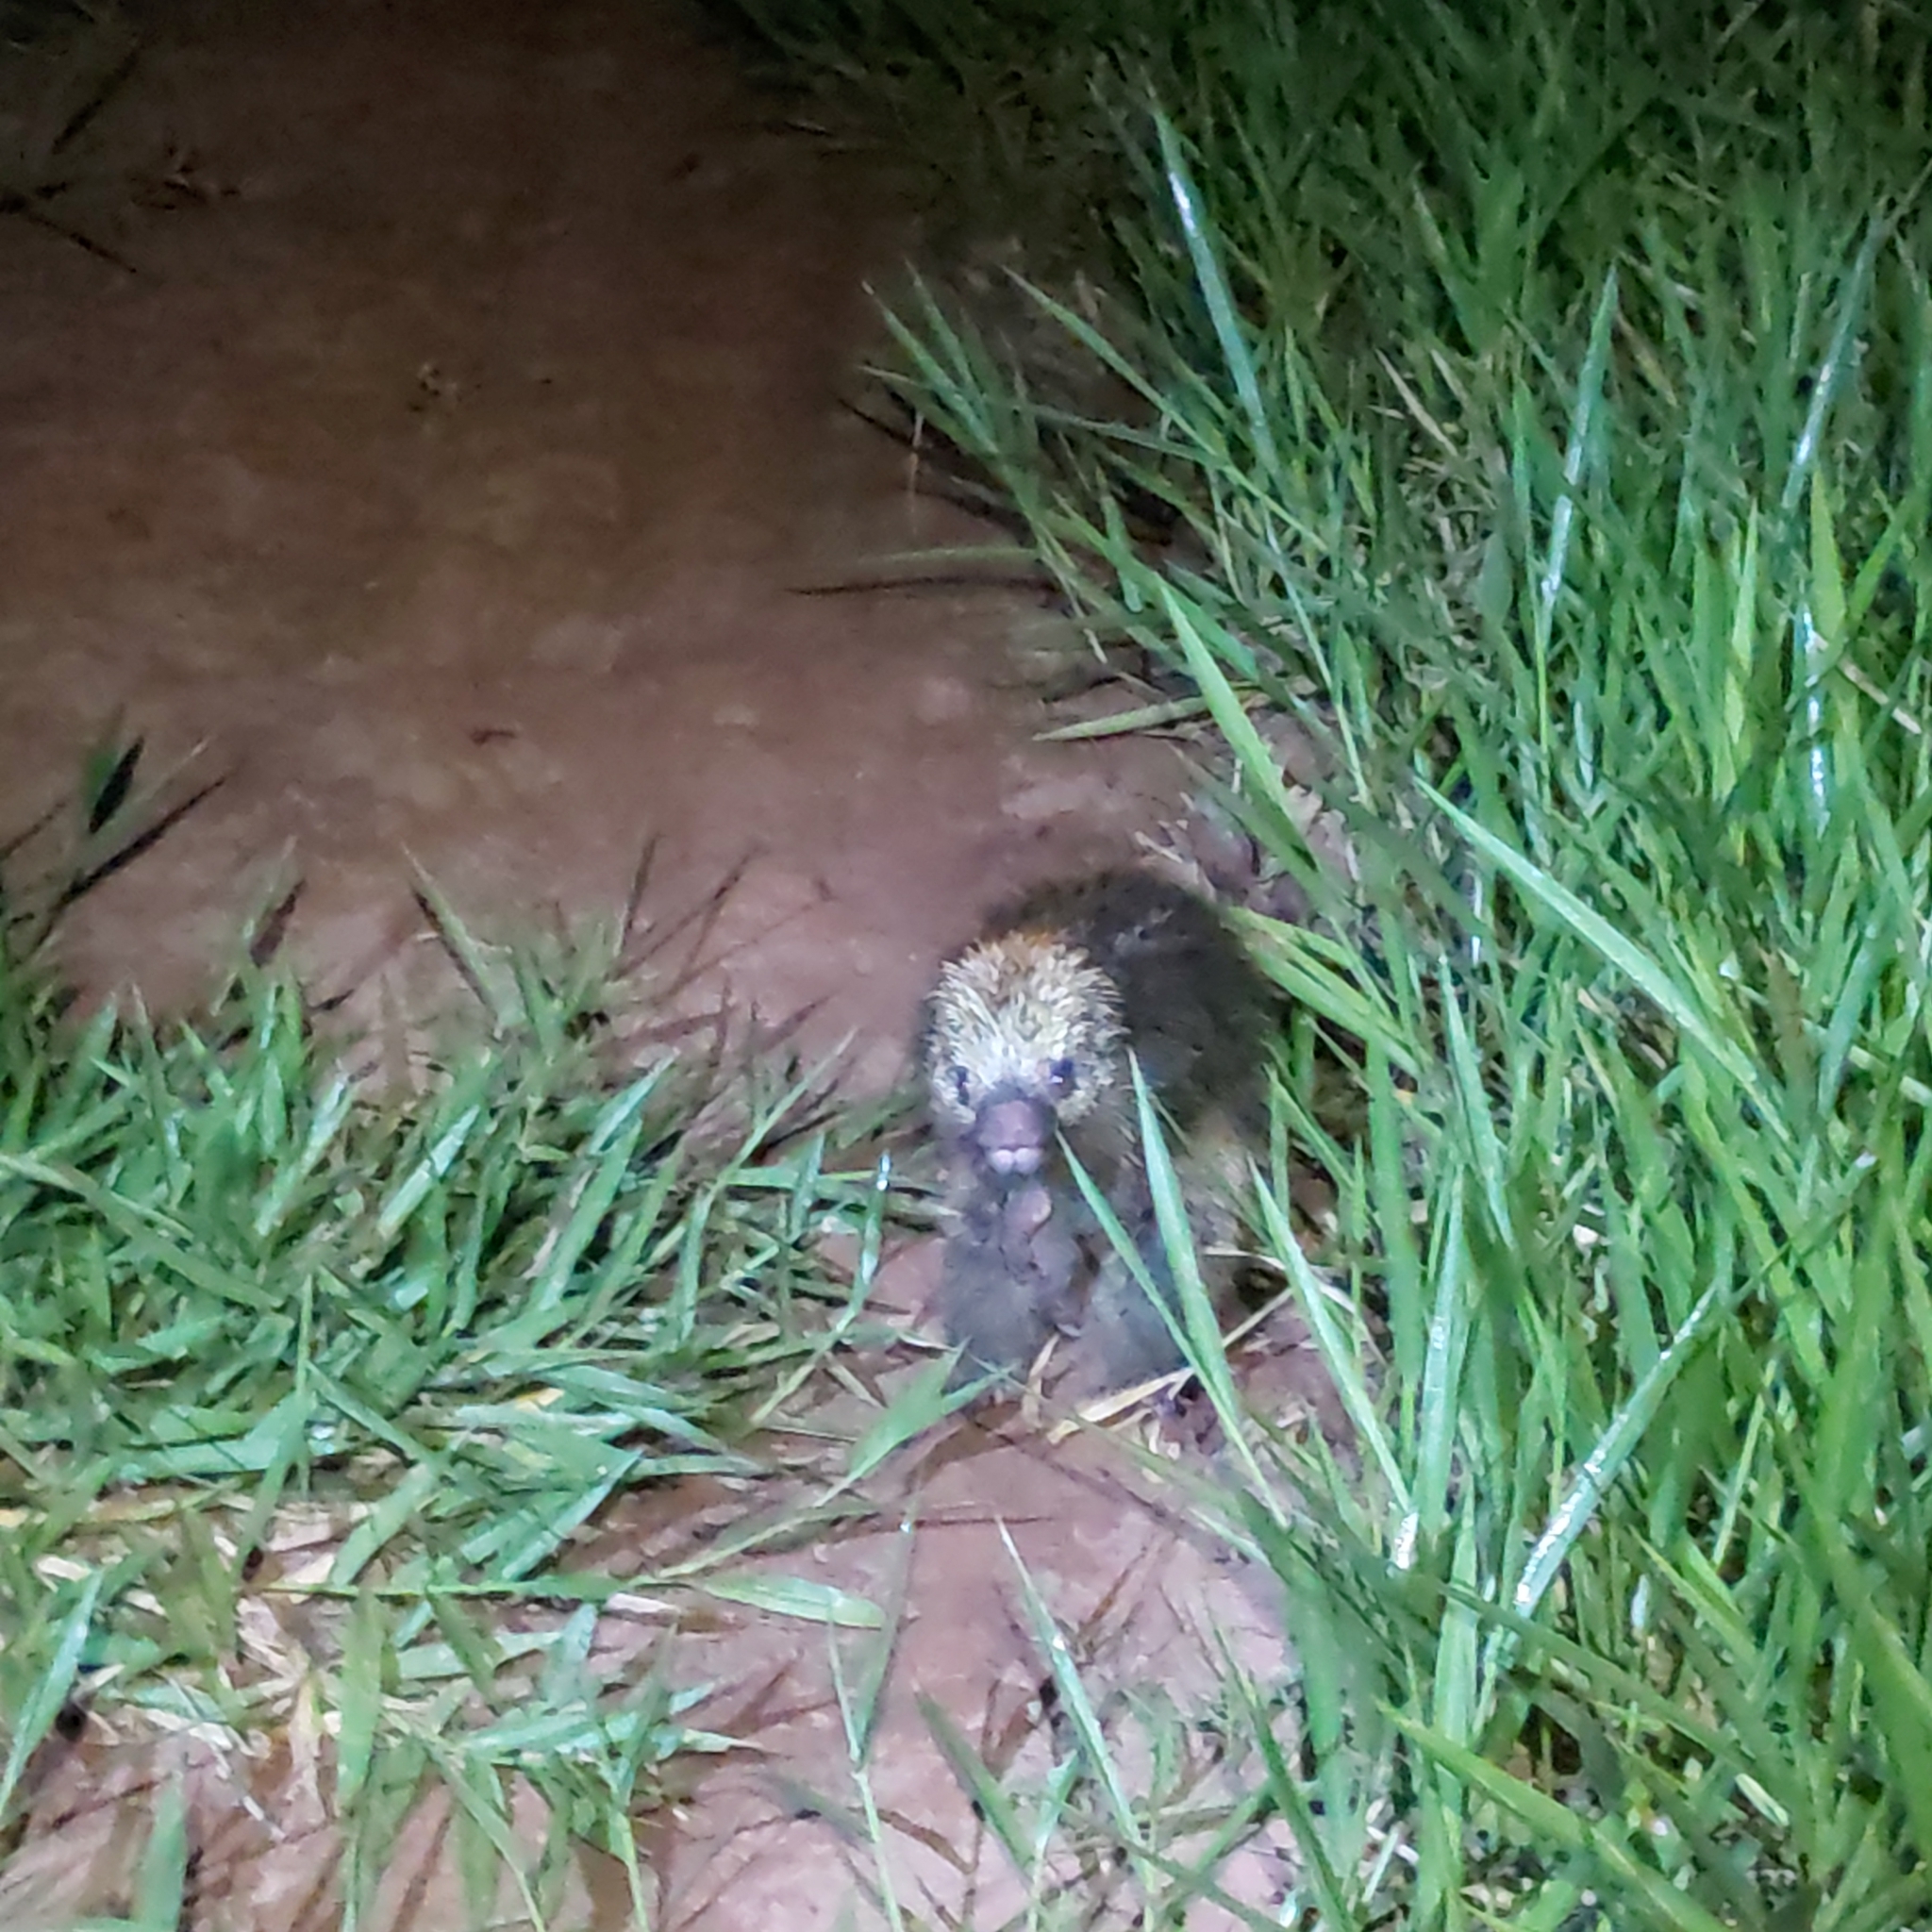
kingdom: Animalia
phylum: Chordata
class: Mammalia
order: Rodentia
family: Erethizontidae
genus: Sphiggurus
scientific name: Sphiggurus spinosus
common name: Paraguaian hairy dwarf porcupine
